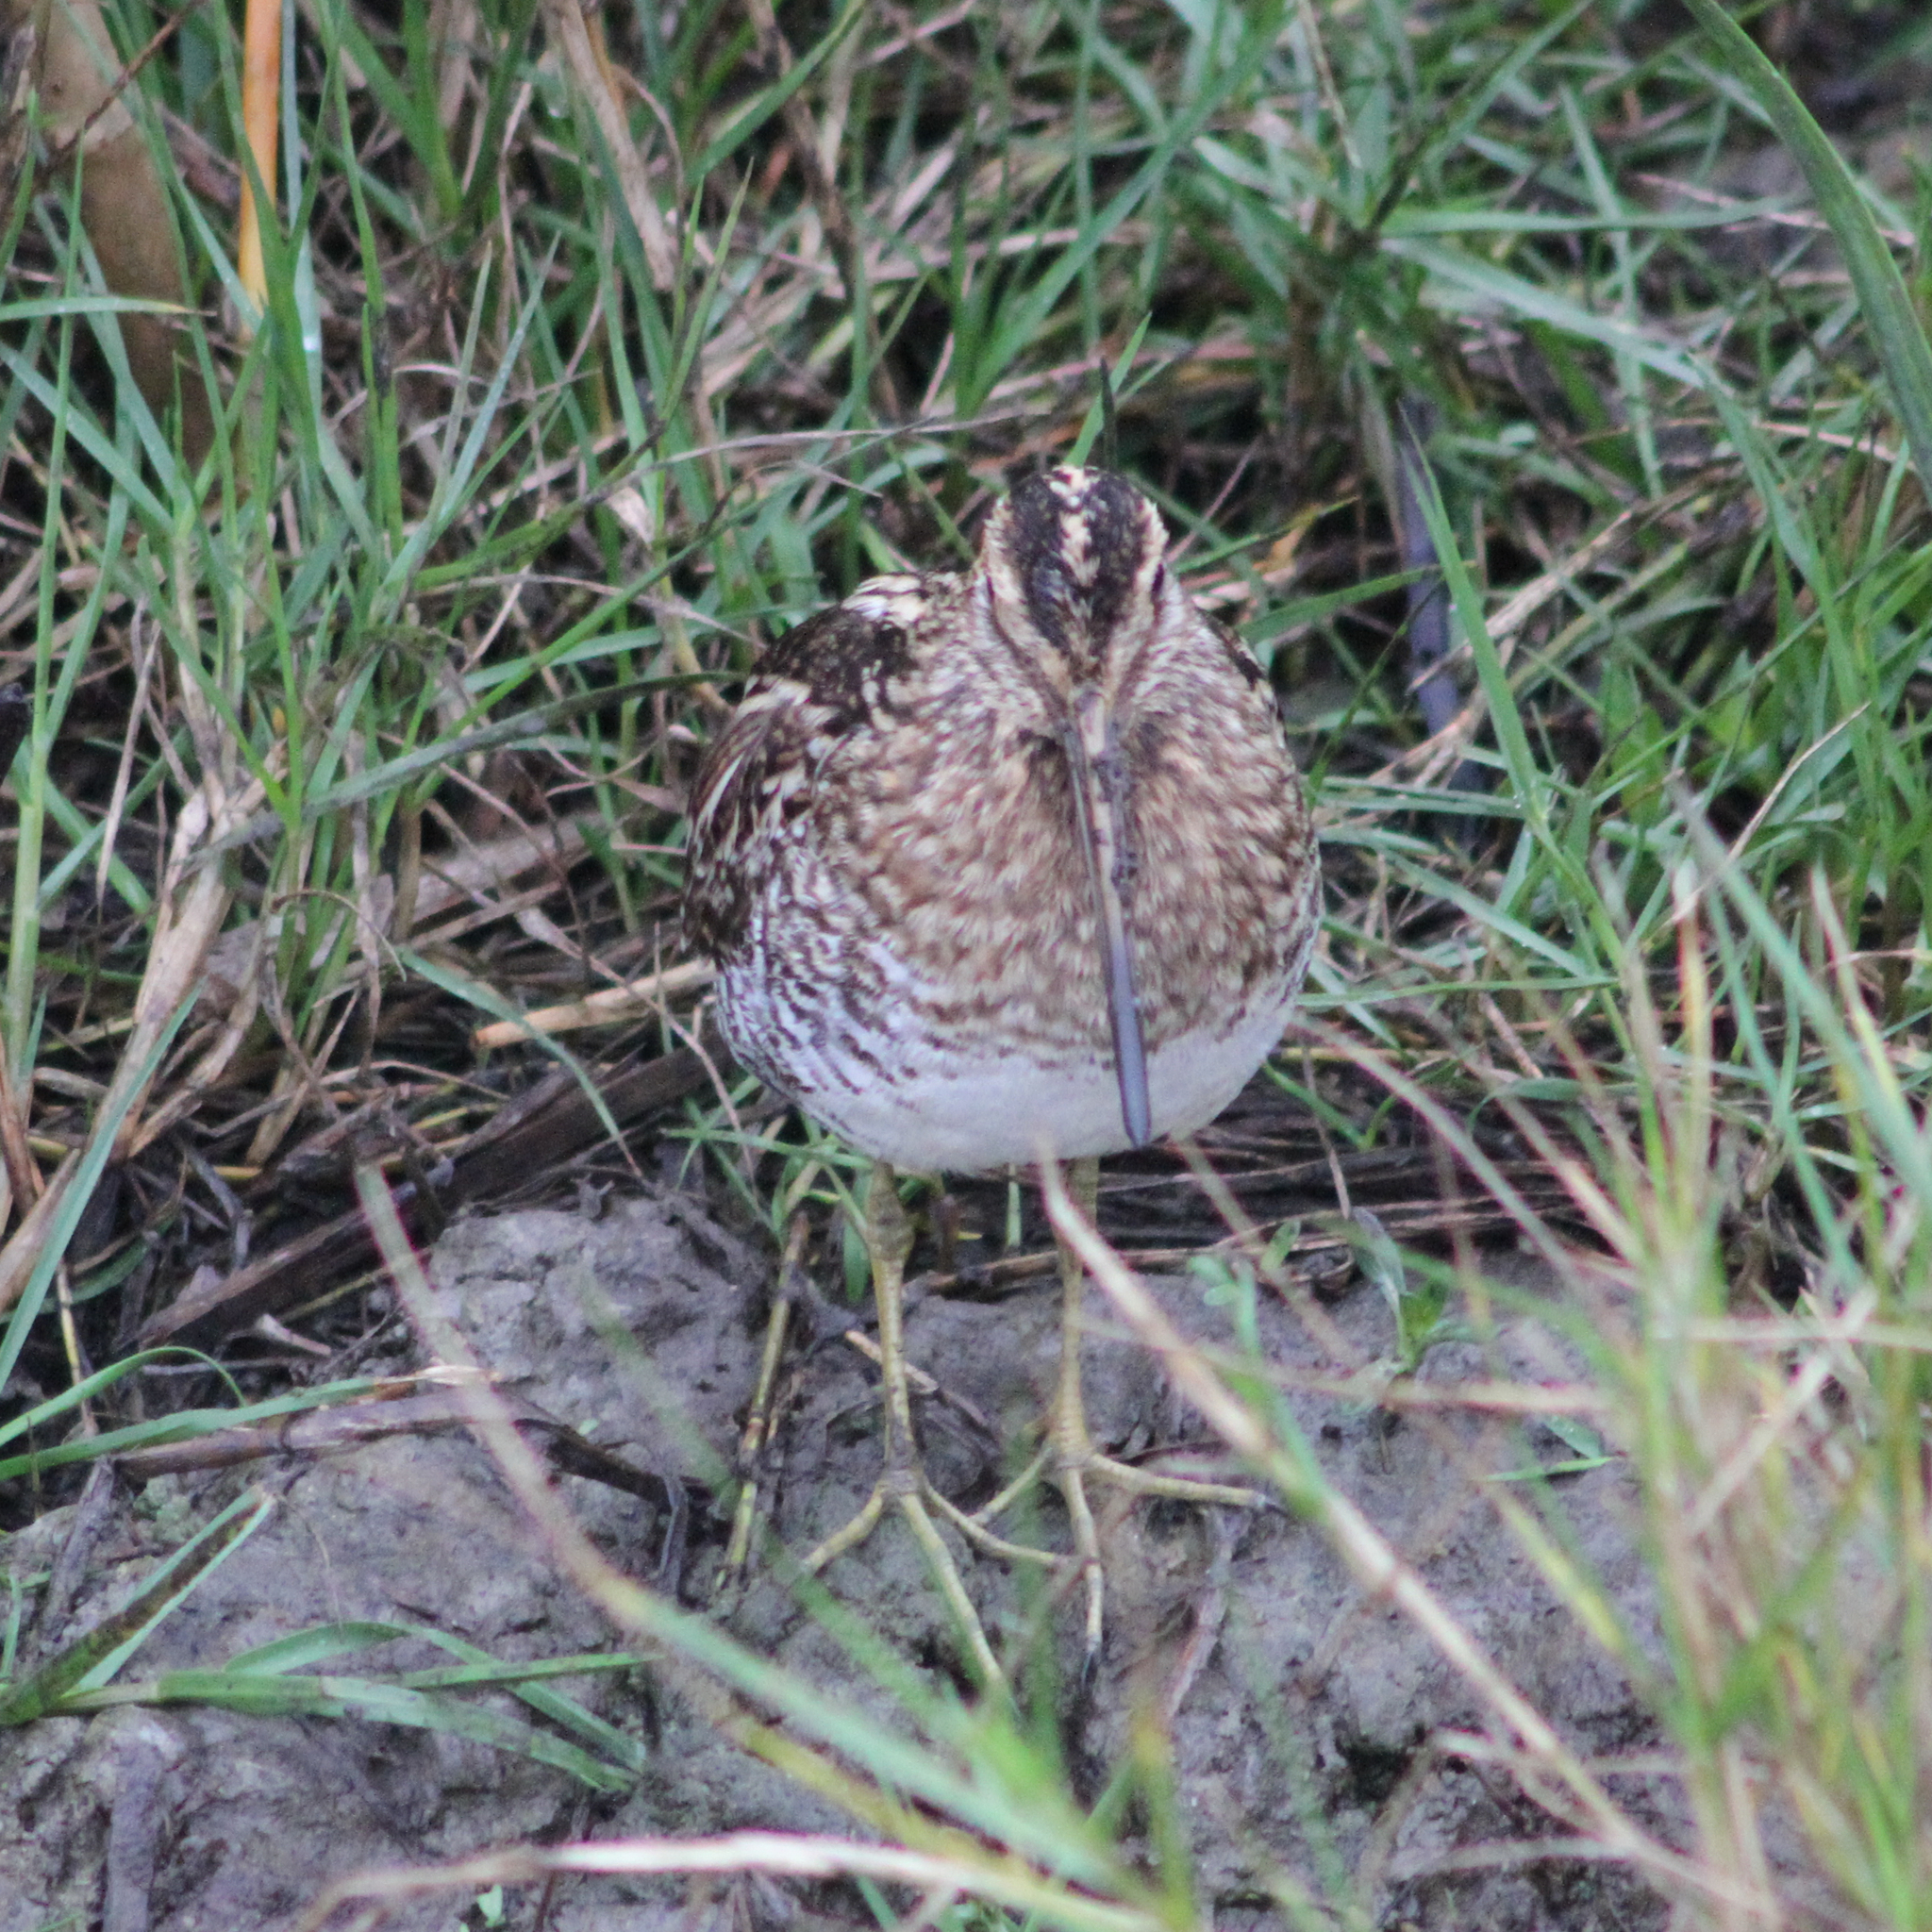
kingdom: Animalia
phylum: Chordata
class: Aves
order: Charadriiformes
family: Scolopacidae
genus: Gallinago
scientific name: Gallinago delicata
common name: Wilson's snipe
